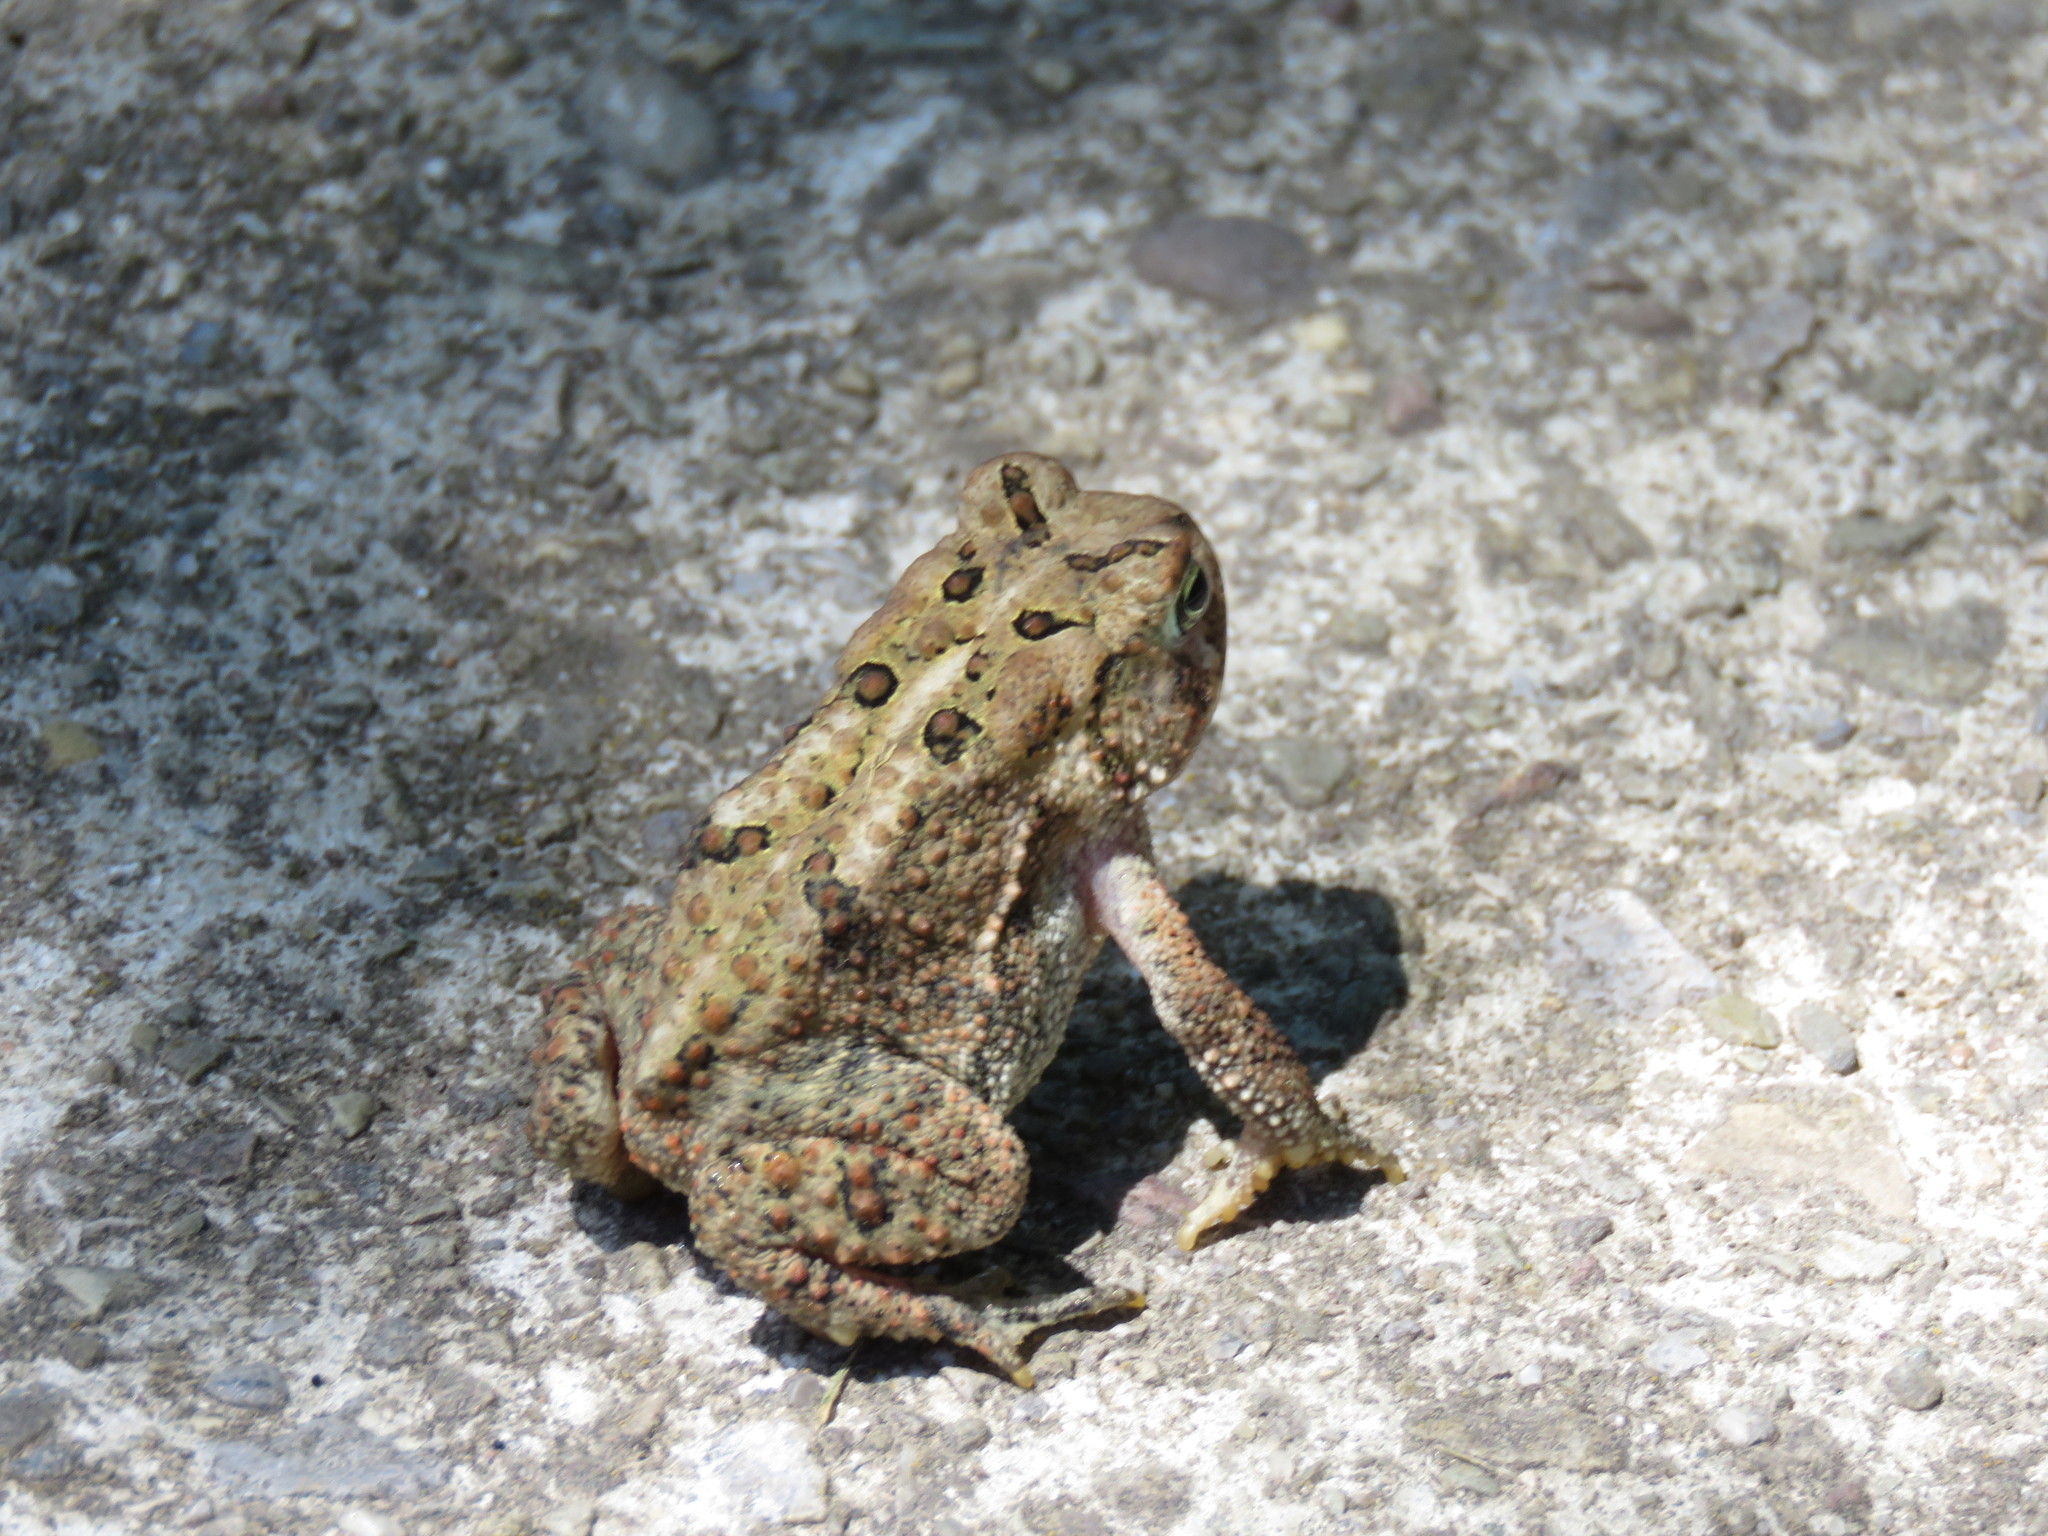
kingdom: Animalia
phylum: Chordata
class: Amphibia
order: Anura
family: Bufonidae
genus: Anaxyrus
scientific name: Anaxyrus americanus
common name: American toad
